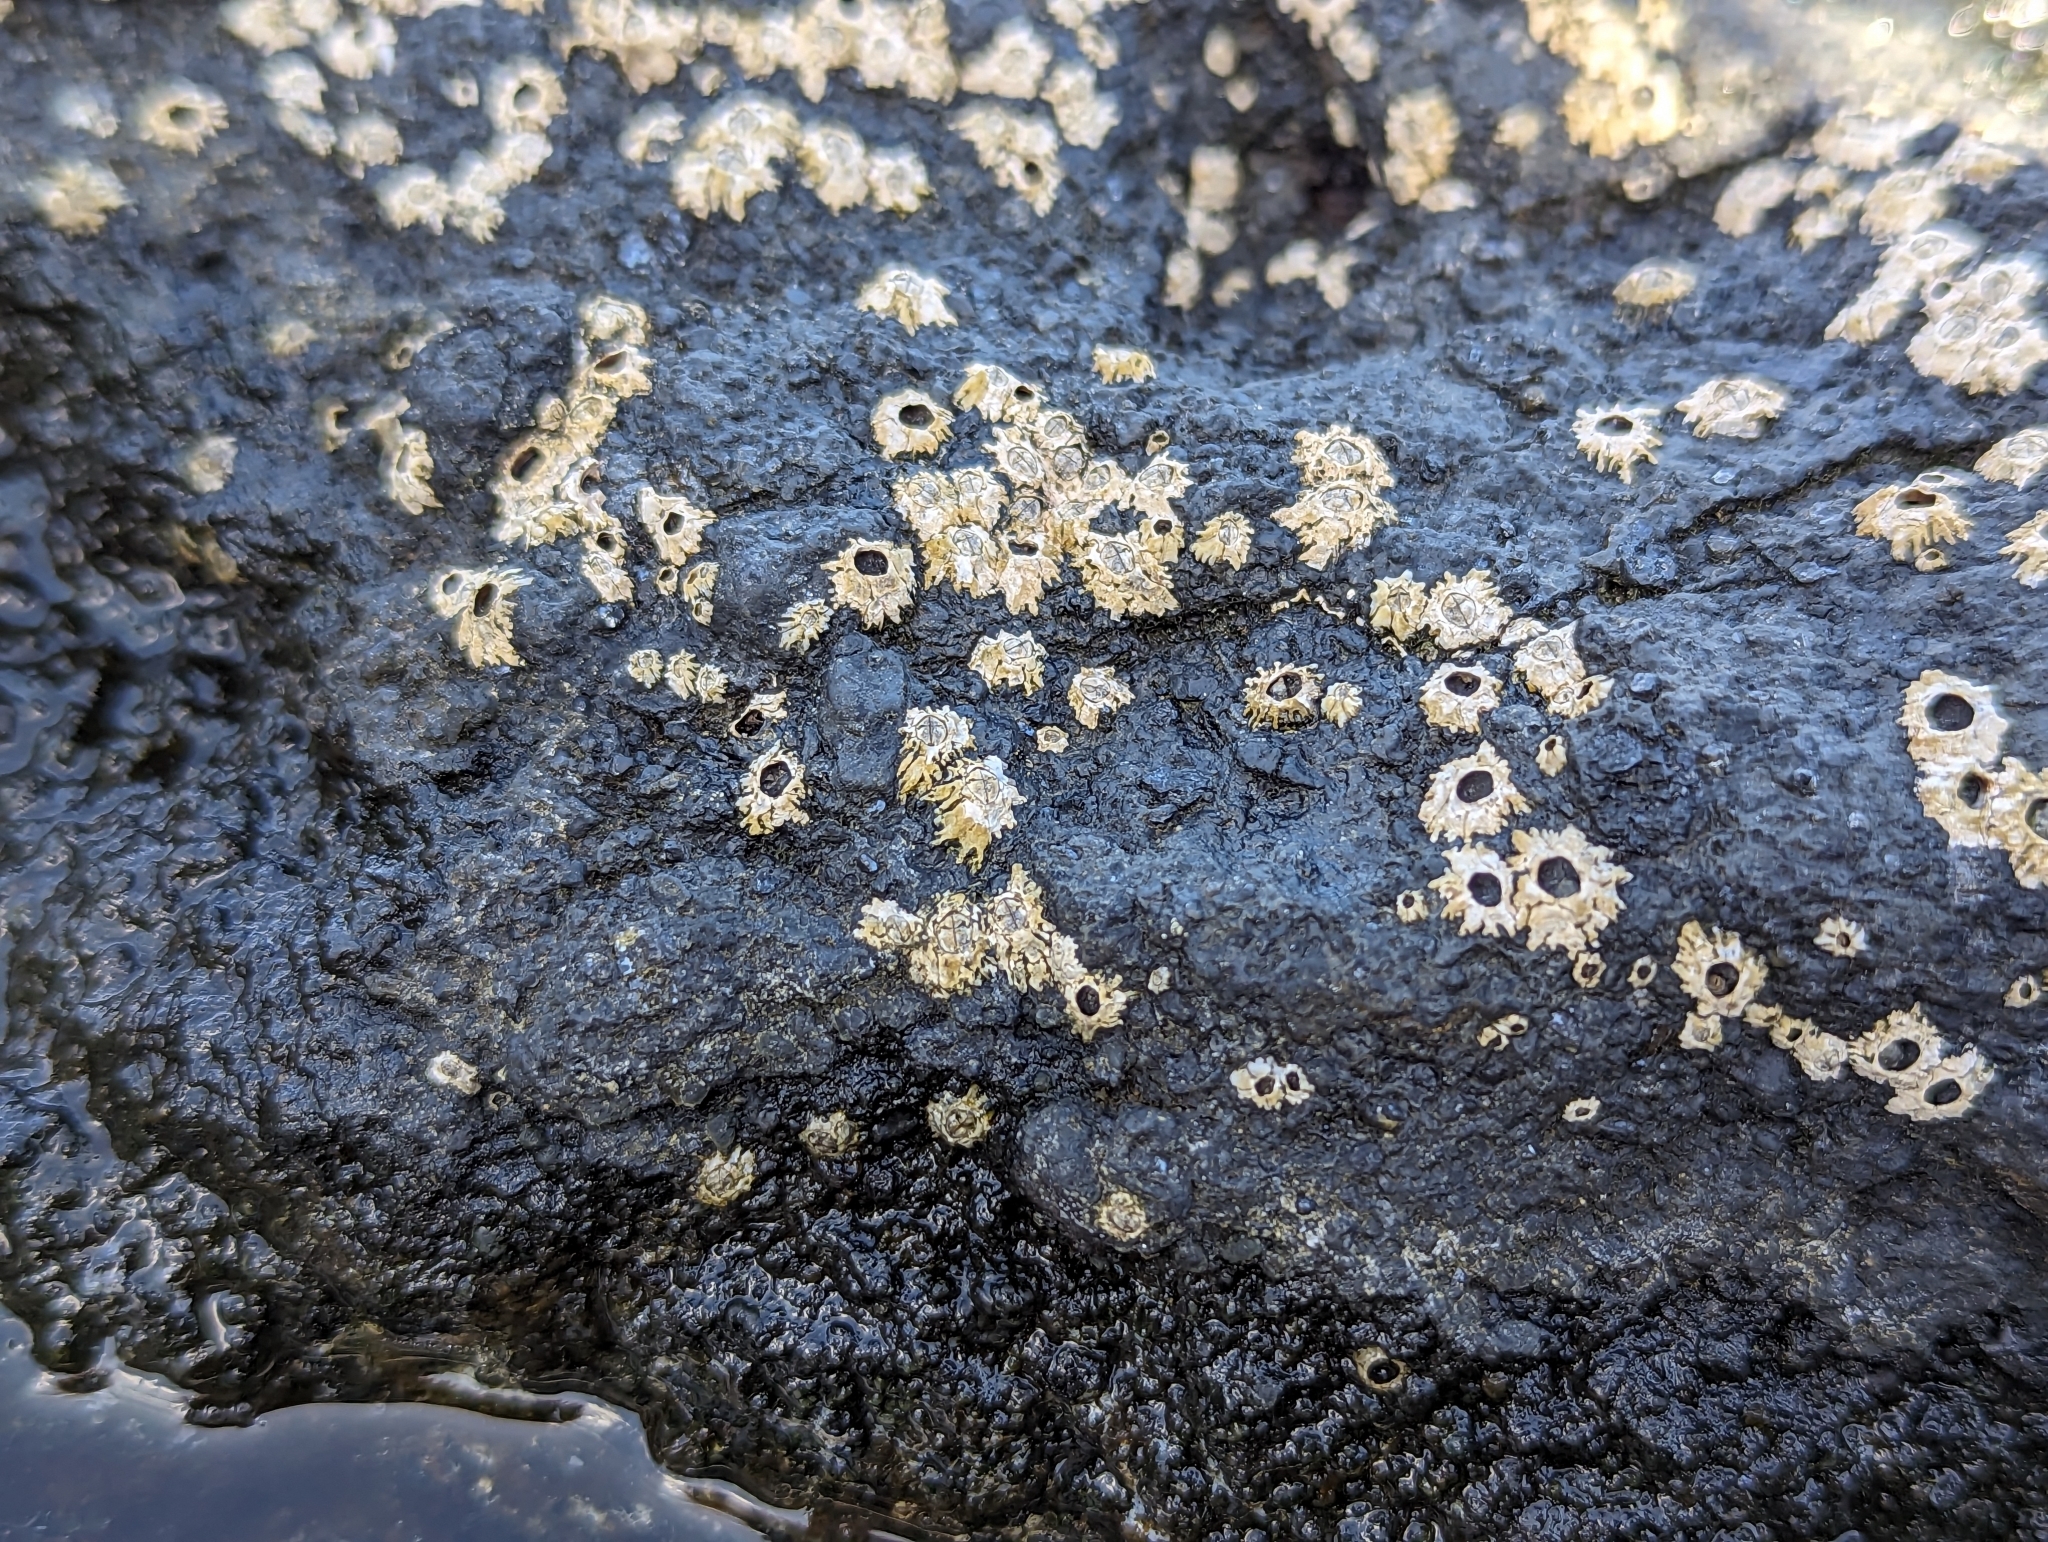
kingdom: Animalia
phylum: Arthropoda
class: Maxillopoda
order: Sessilia
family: Chthamalidae
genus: Chthamalus
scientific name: Chthamalus stellatus
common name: Poli's stellate barnacle
